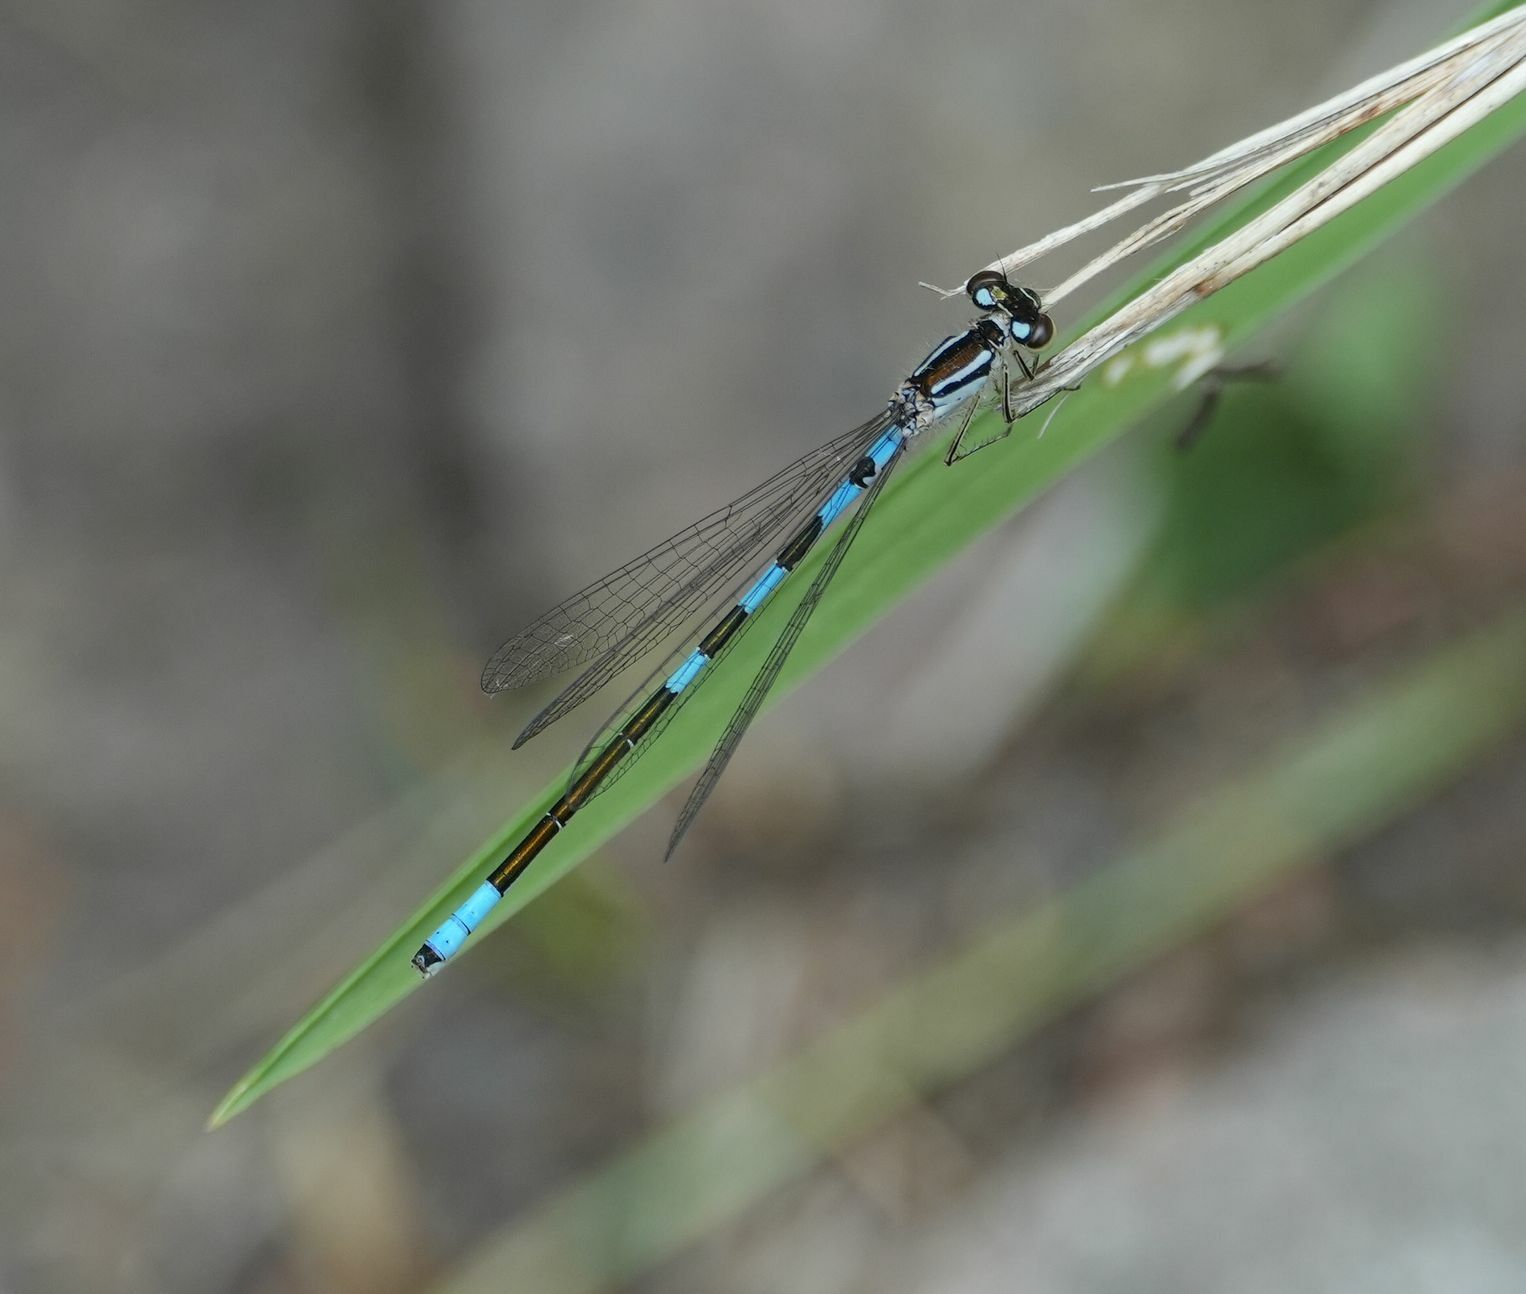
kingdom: Animalia
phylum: Arthropoda
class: Insecta
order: Odonata
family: Coenagrionidae
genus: Coenagrion
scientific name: Coenagrion resolutum
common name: Taiga bluet
